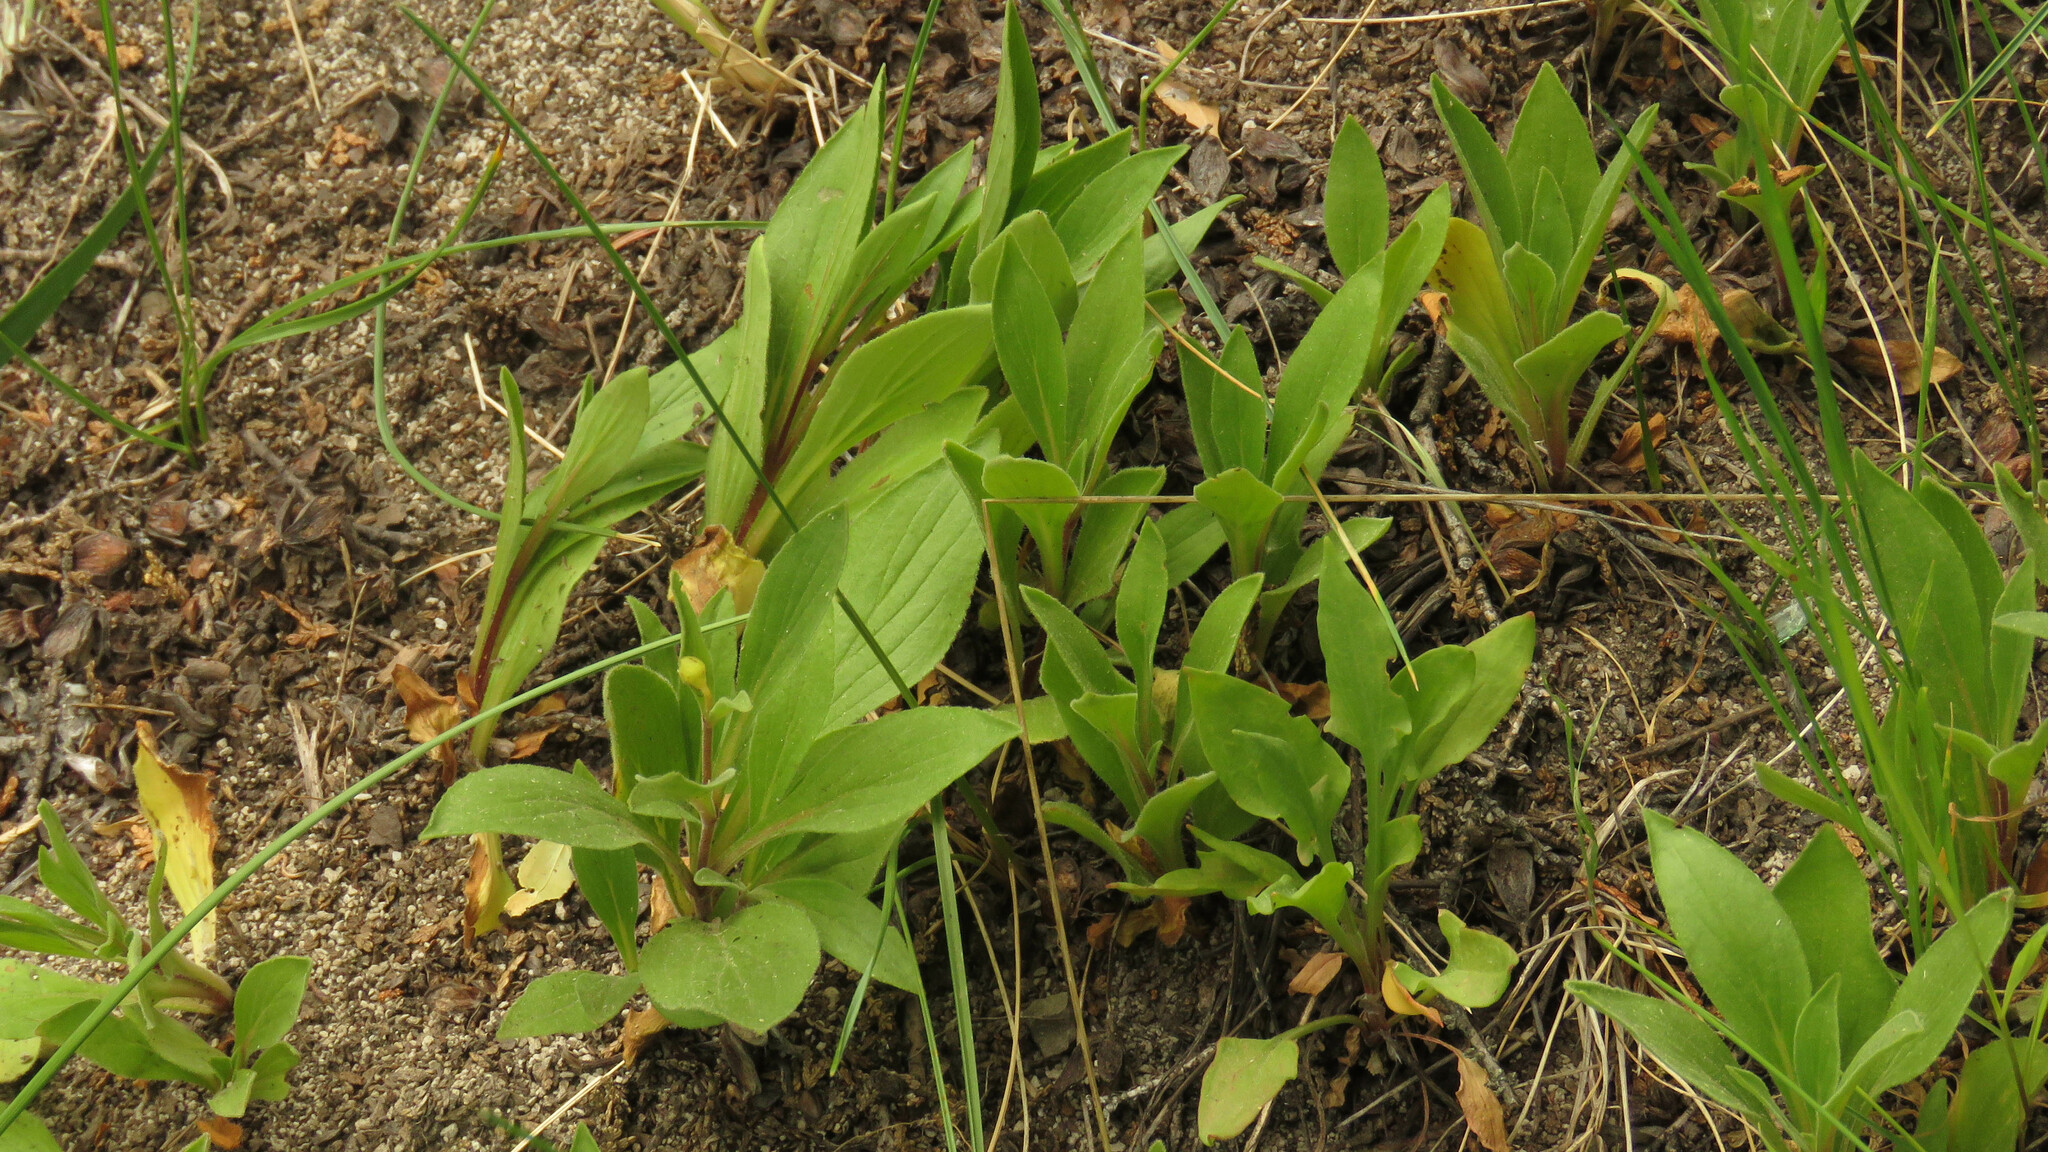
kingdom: Plantae
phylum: Tracheophyta
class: Magnoliopsida
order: Lamiales
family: Calceolariaceae
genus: Calceolaria
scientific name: Calceolaria polyrhiza
